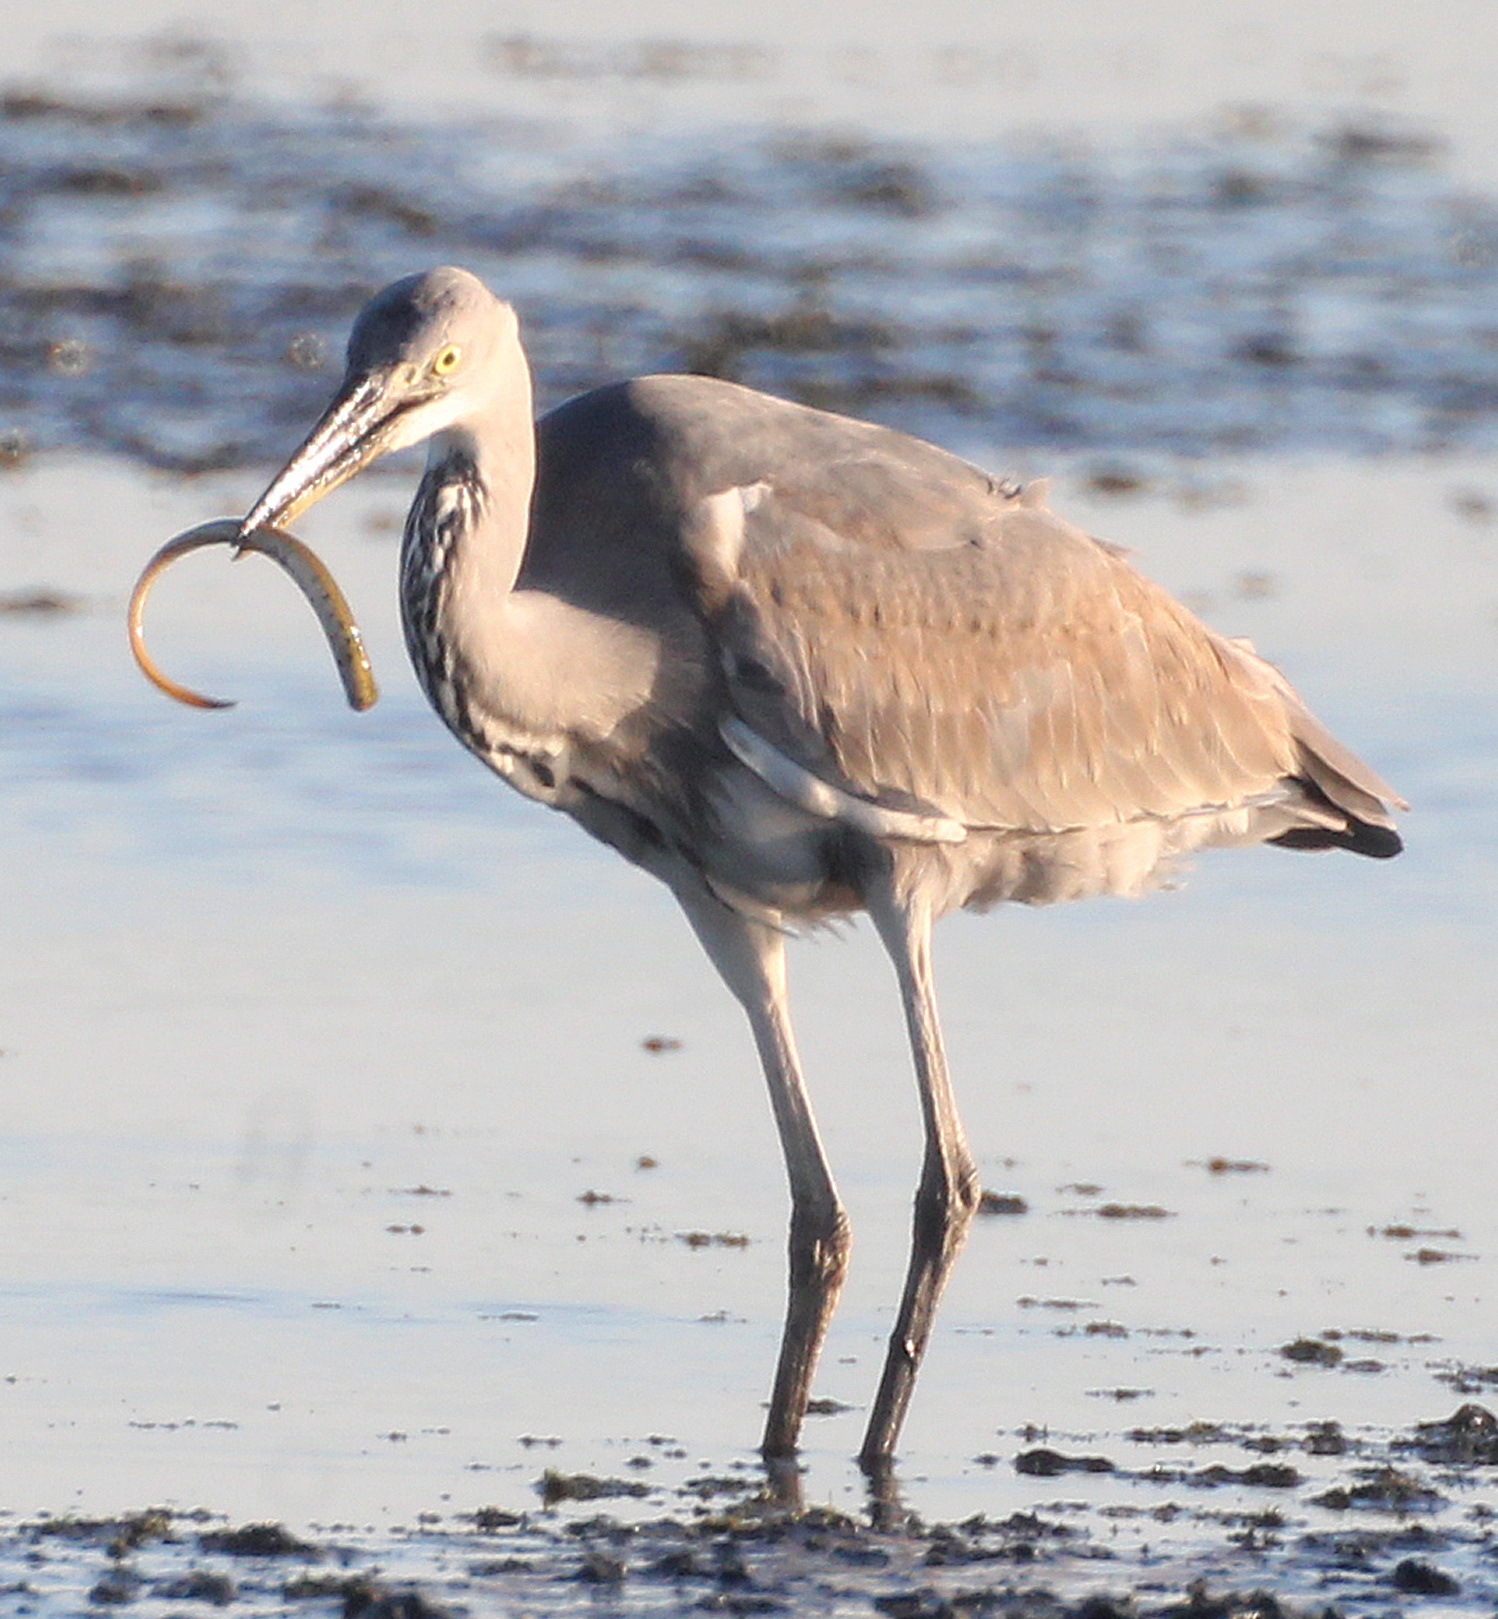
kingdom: Animalia
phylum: Chordata
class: Aves
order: Pelecaniformes
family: Ardeidae
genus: Ardea
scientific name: Ardea cinerea
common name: Grey heron
